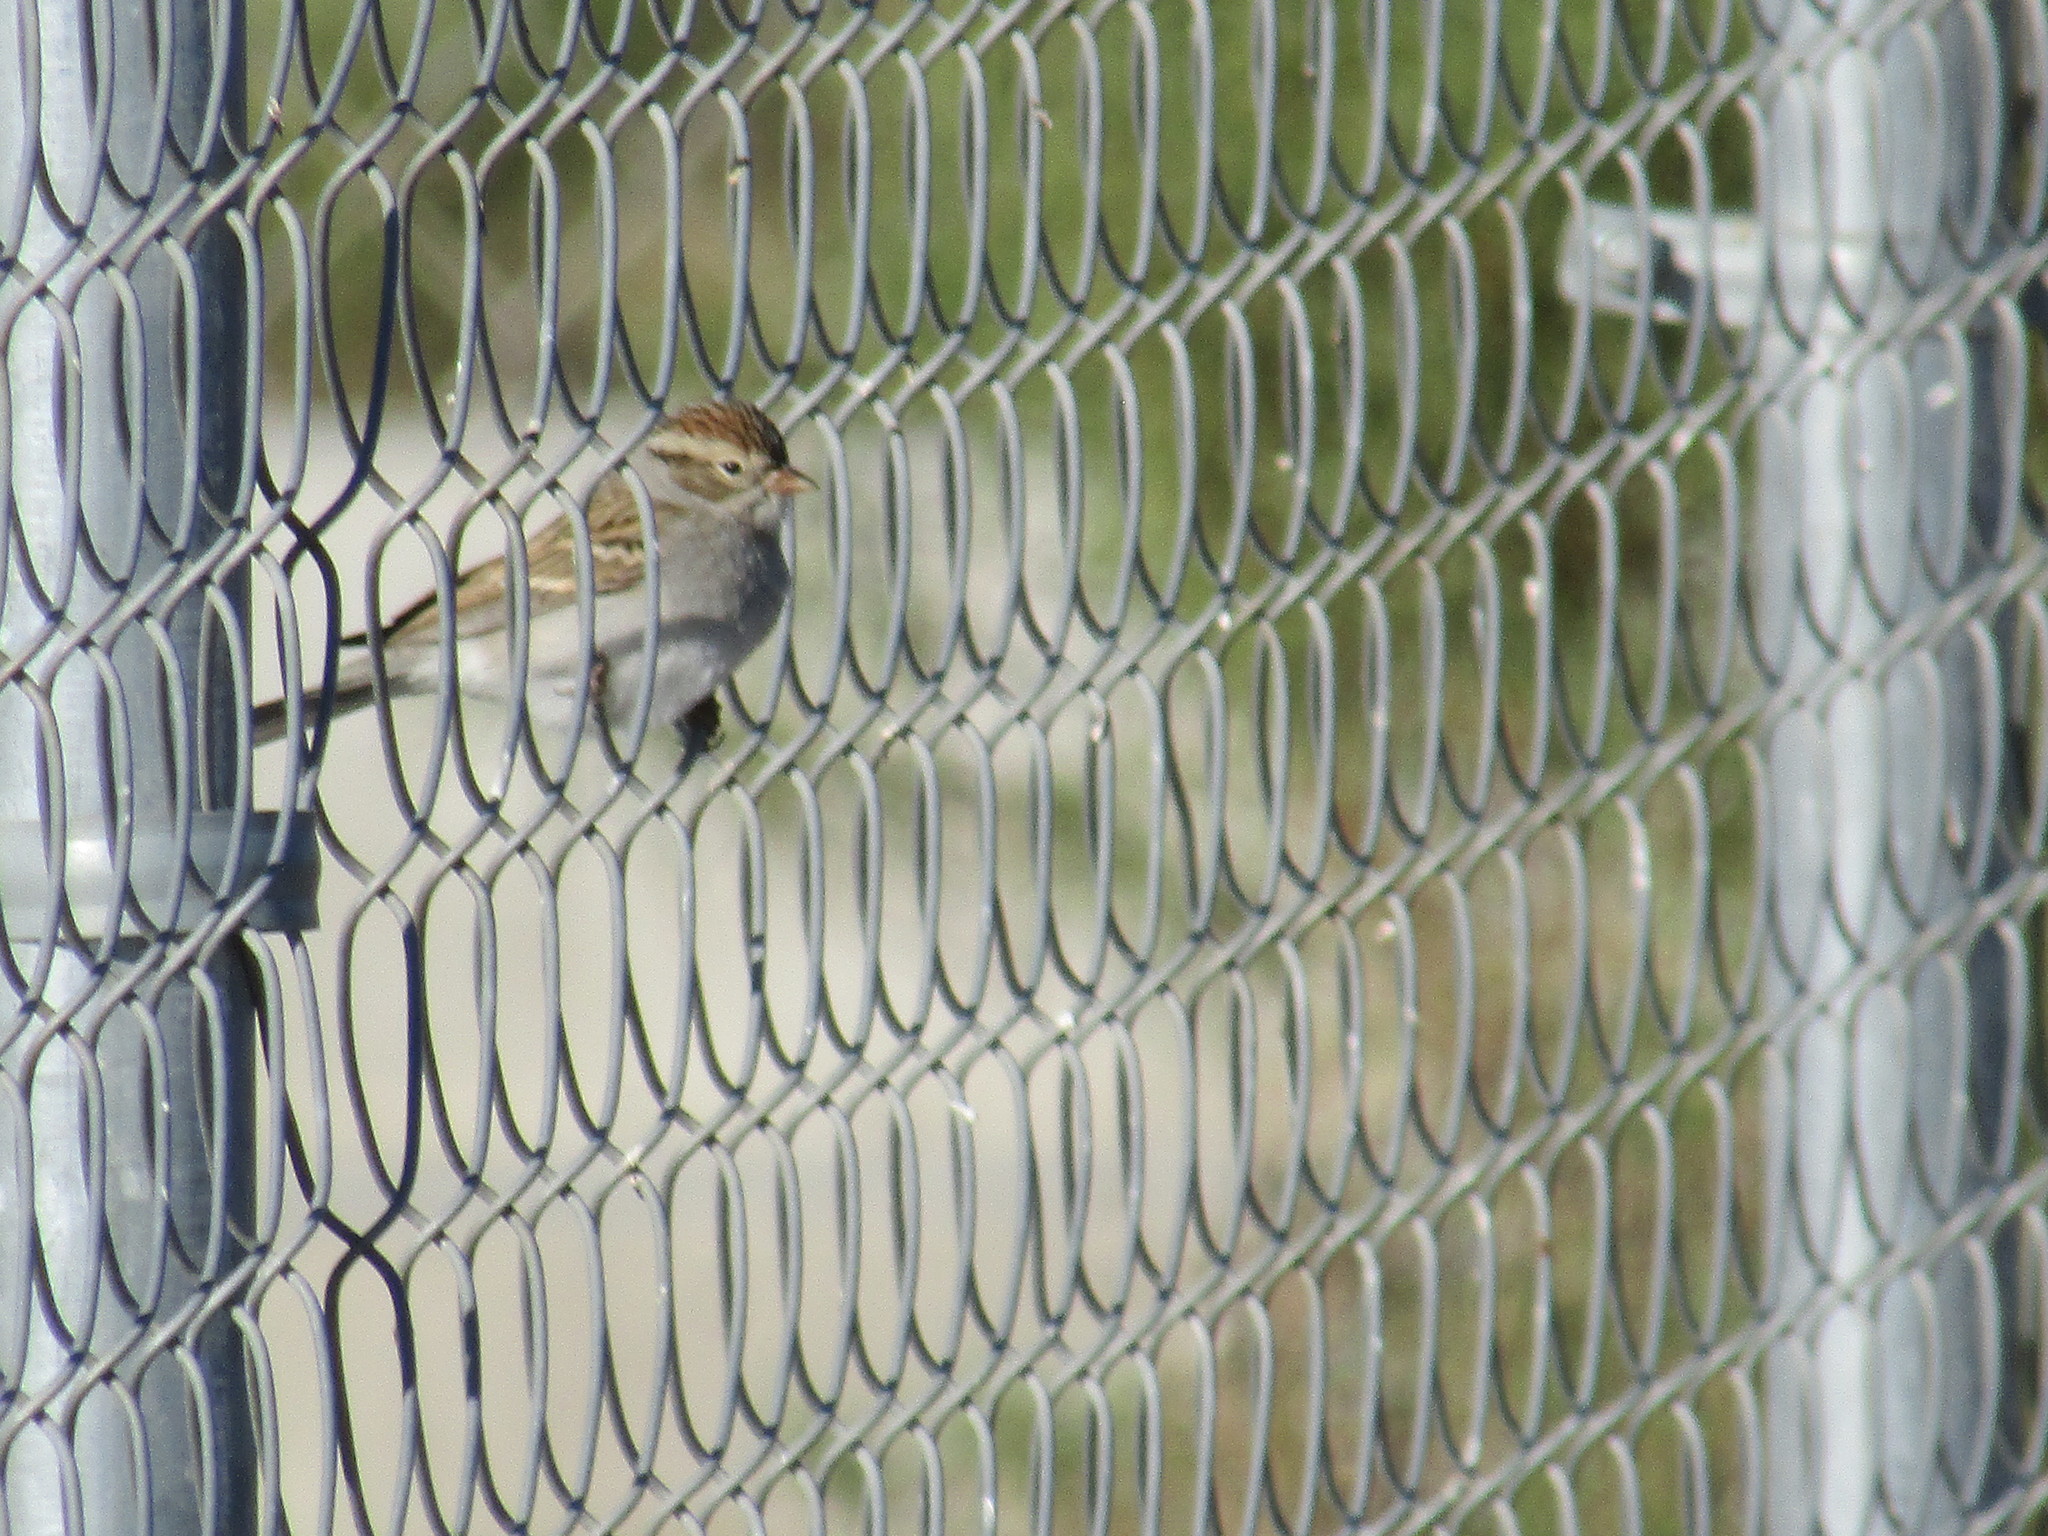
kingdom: Animalia
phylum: Chordata
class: Aves
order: Passeriformes
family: Passerellidae
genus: Spizella
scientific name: Spizella passerina
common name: Chipping sparrow
